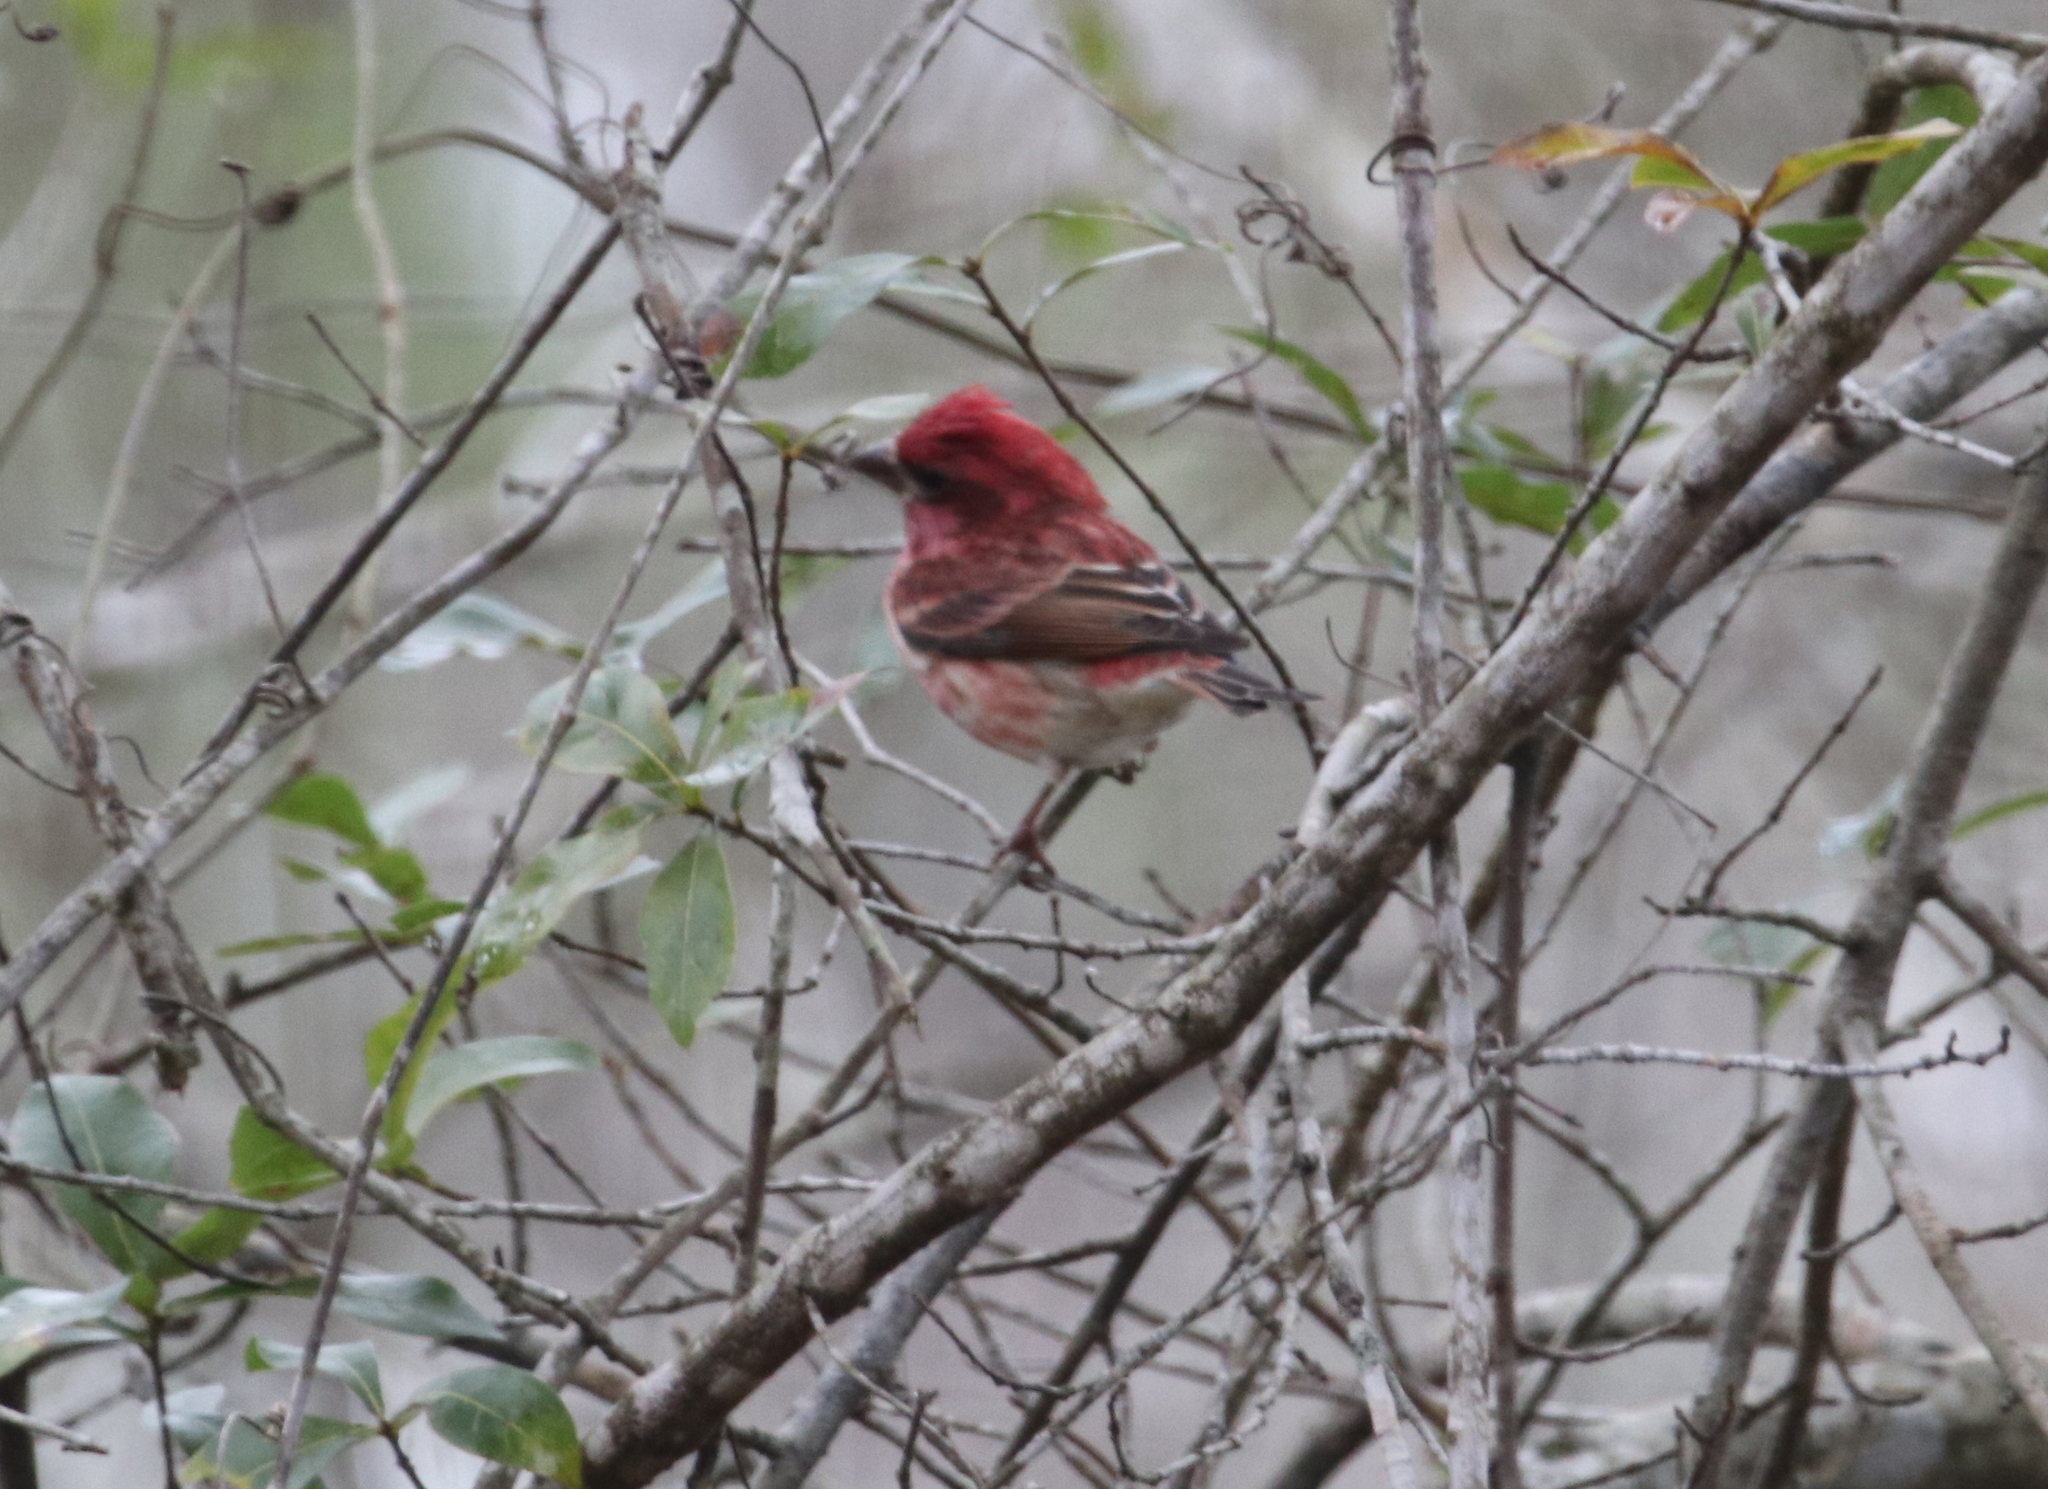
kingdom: Animalia
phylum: Chordata
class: Aves
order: Passeriformes
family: Fringillidae
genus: Haemorhous
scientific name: Haemorhous purpureus
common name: Purple finch
